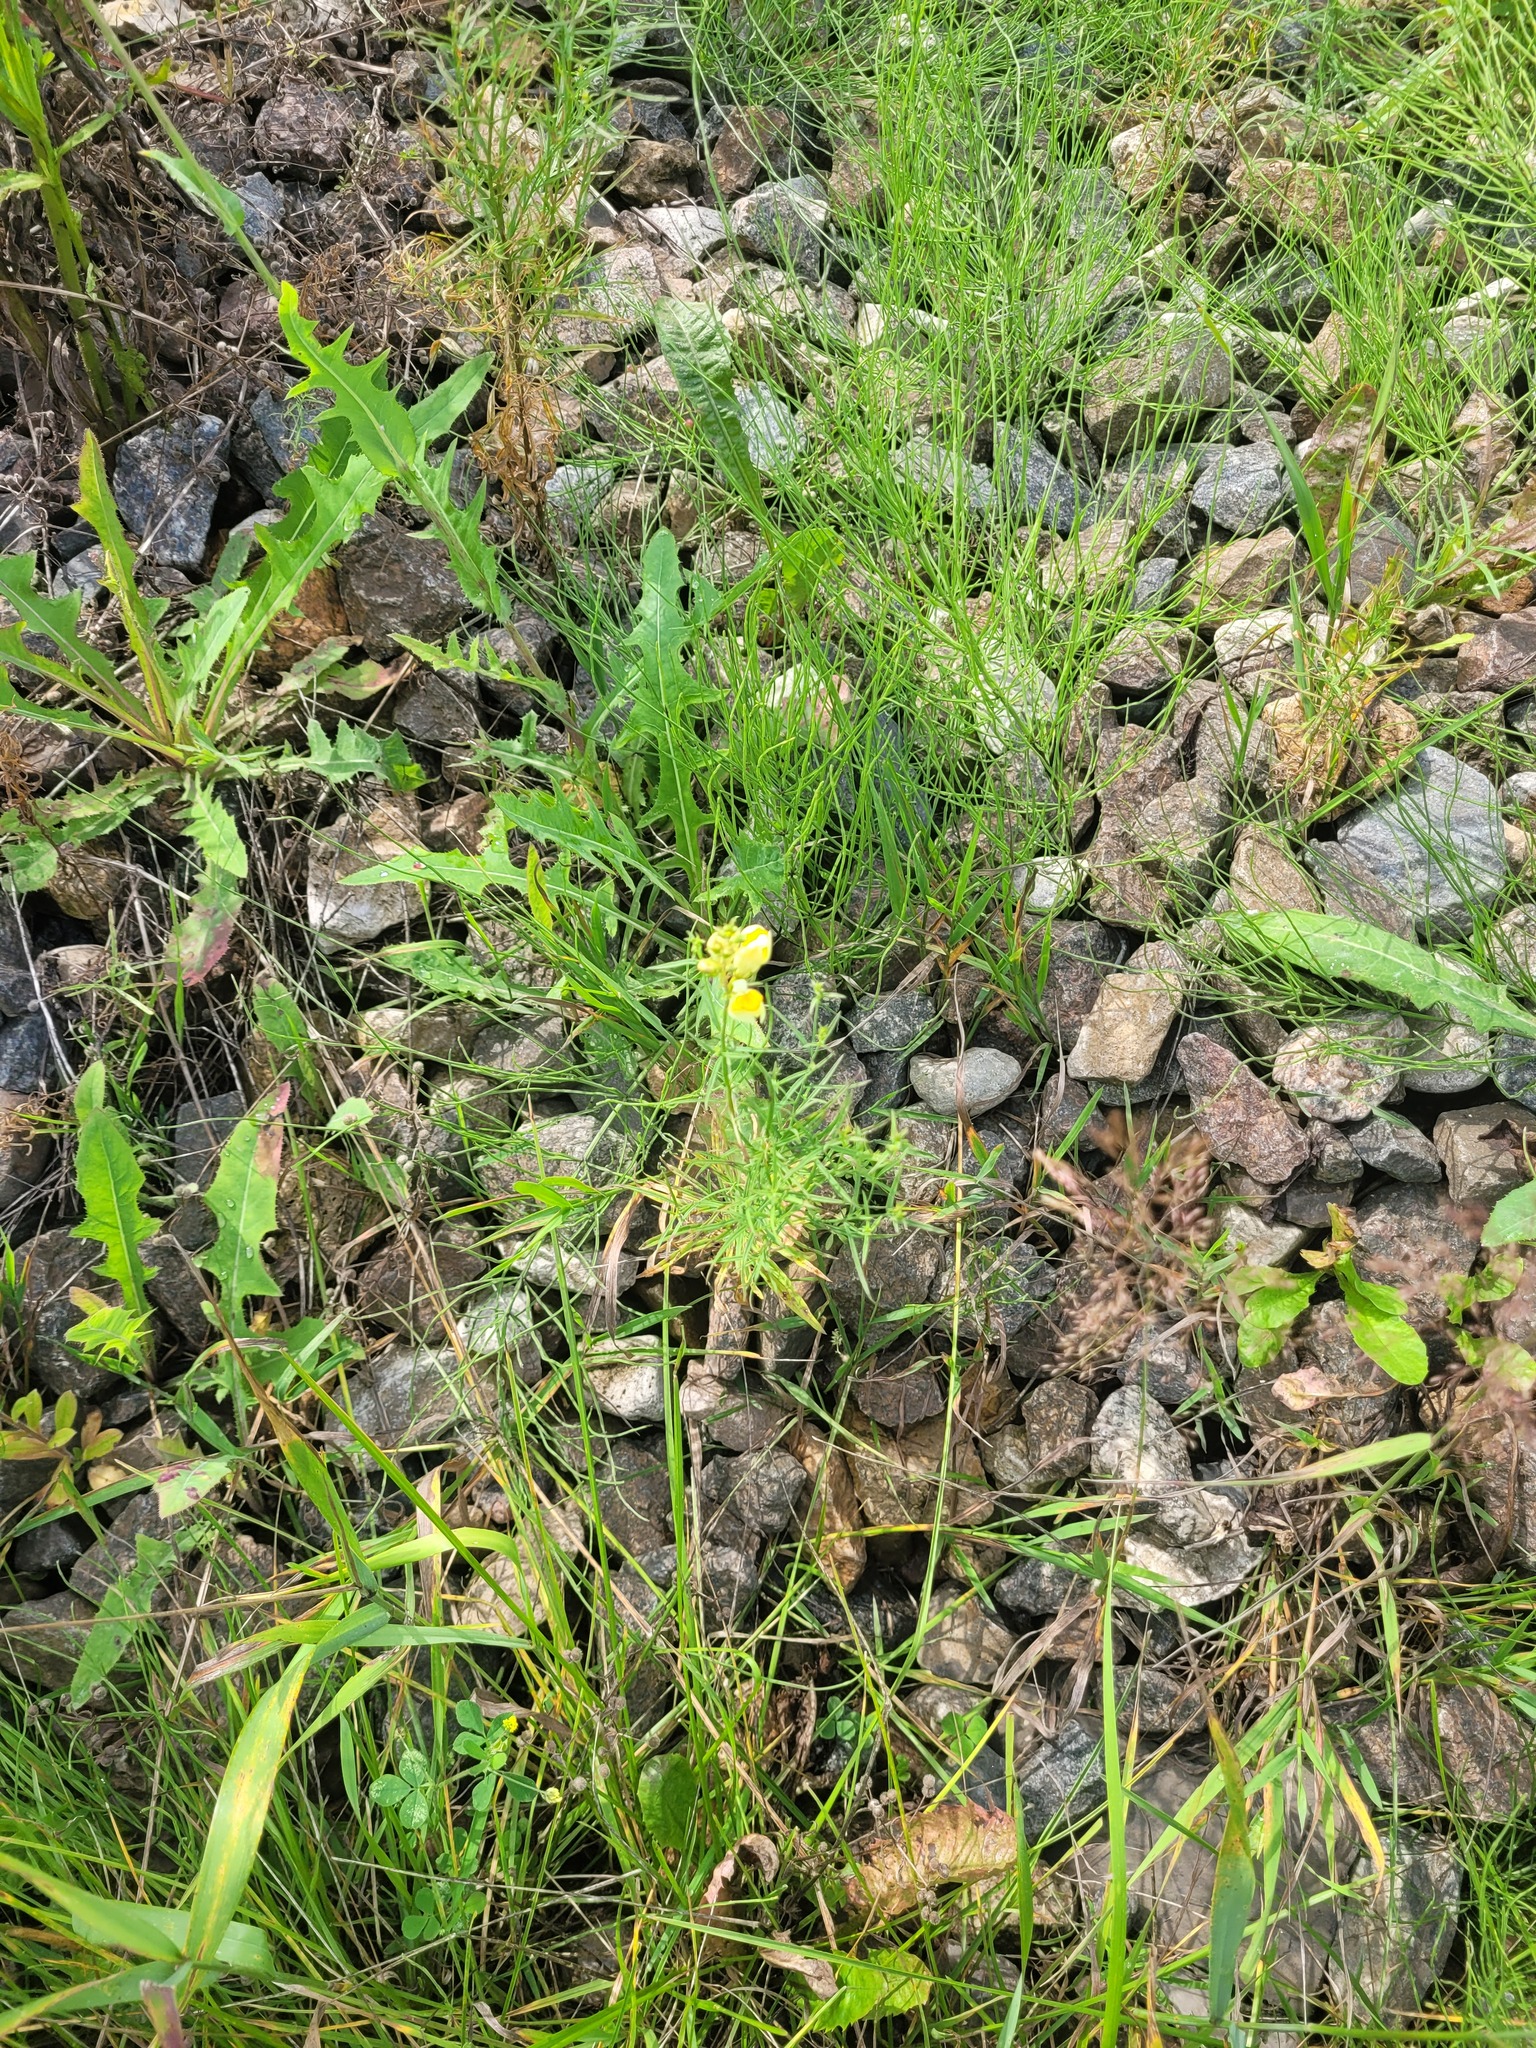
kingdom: Plantae
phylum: Tracheophyta
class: Magnoliopsida
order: Lamiales
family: Plantaginaceae
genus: Linaria
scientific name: Linaria vulgaris
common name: Butter and eggs
